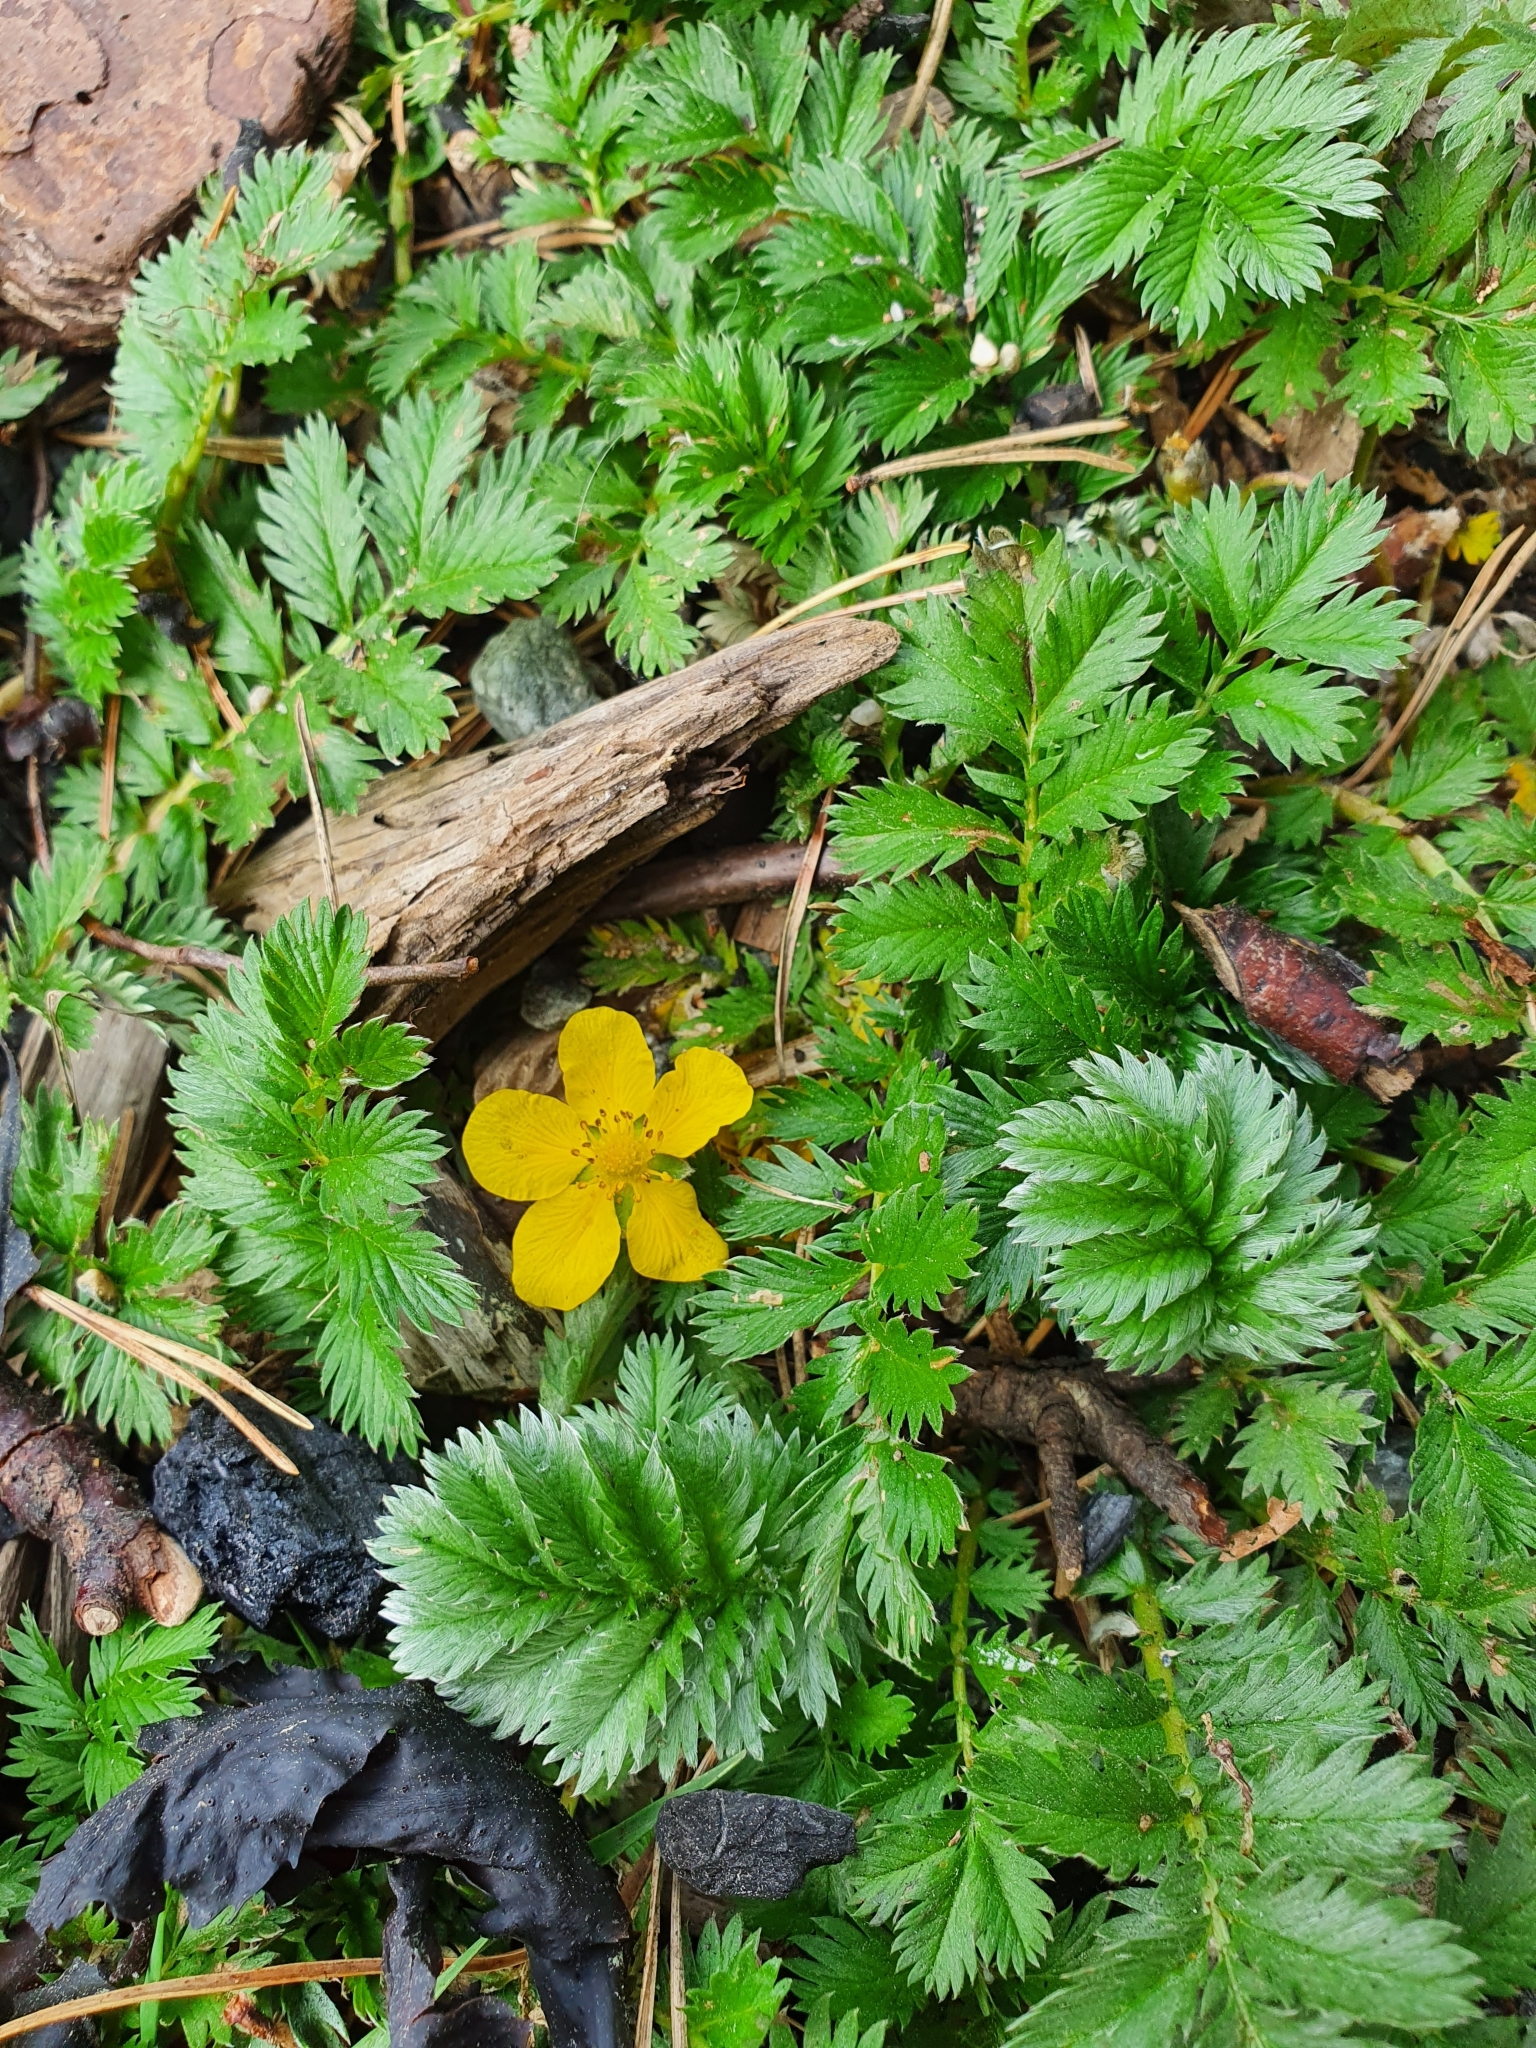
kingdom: Plantae
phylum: Tracheophyta
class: Magnoliopsida
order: Rosales
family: Rosaceae
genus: Argentina
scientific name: Argentina anserina
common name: Common silverweed
